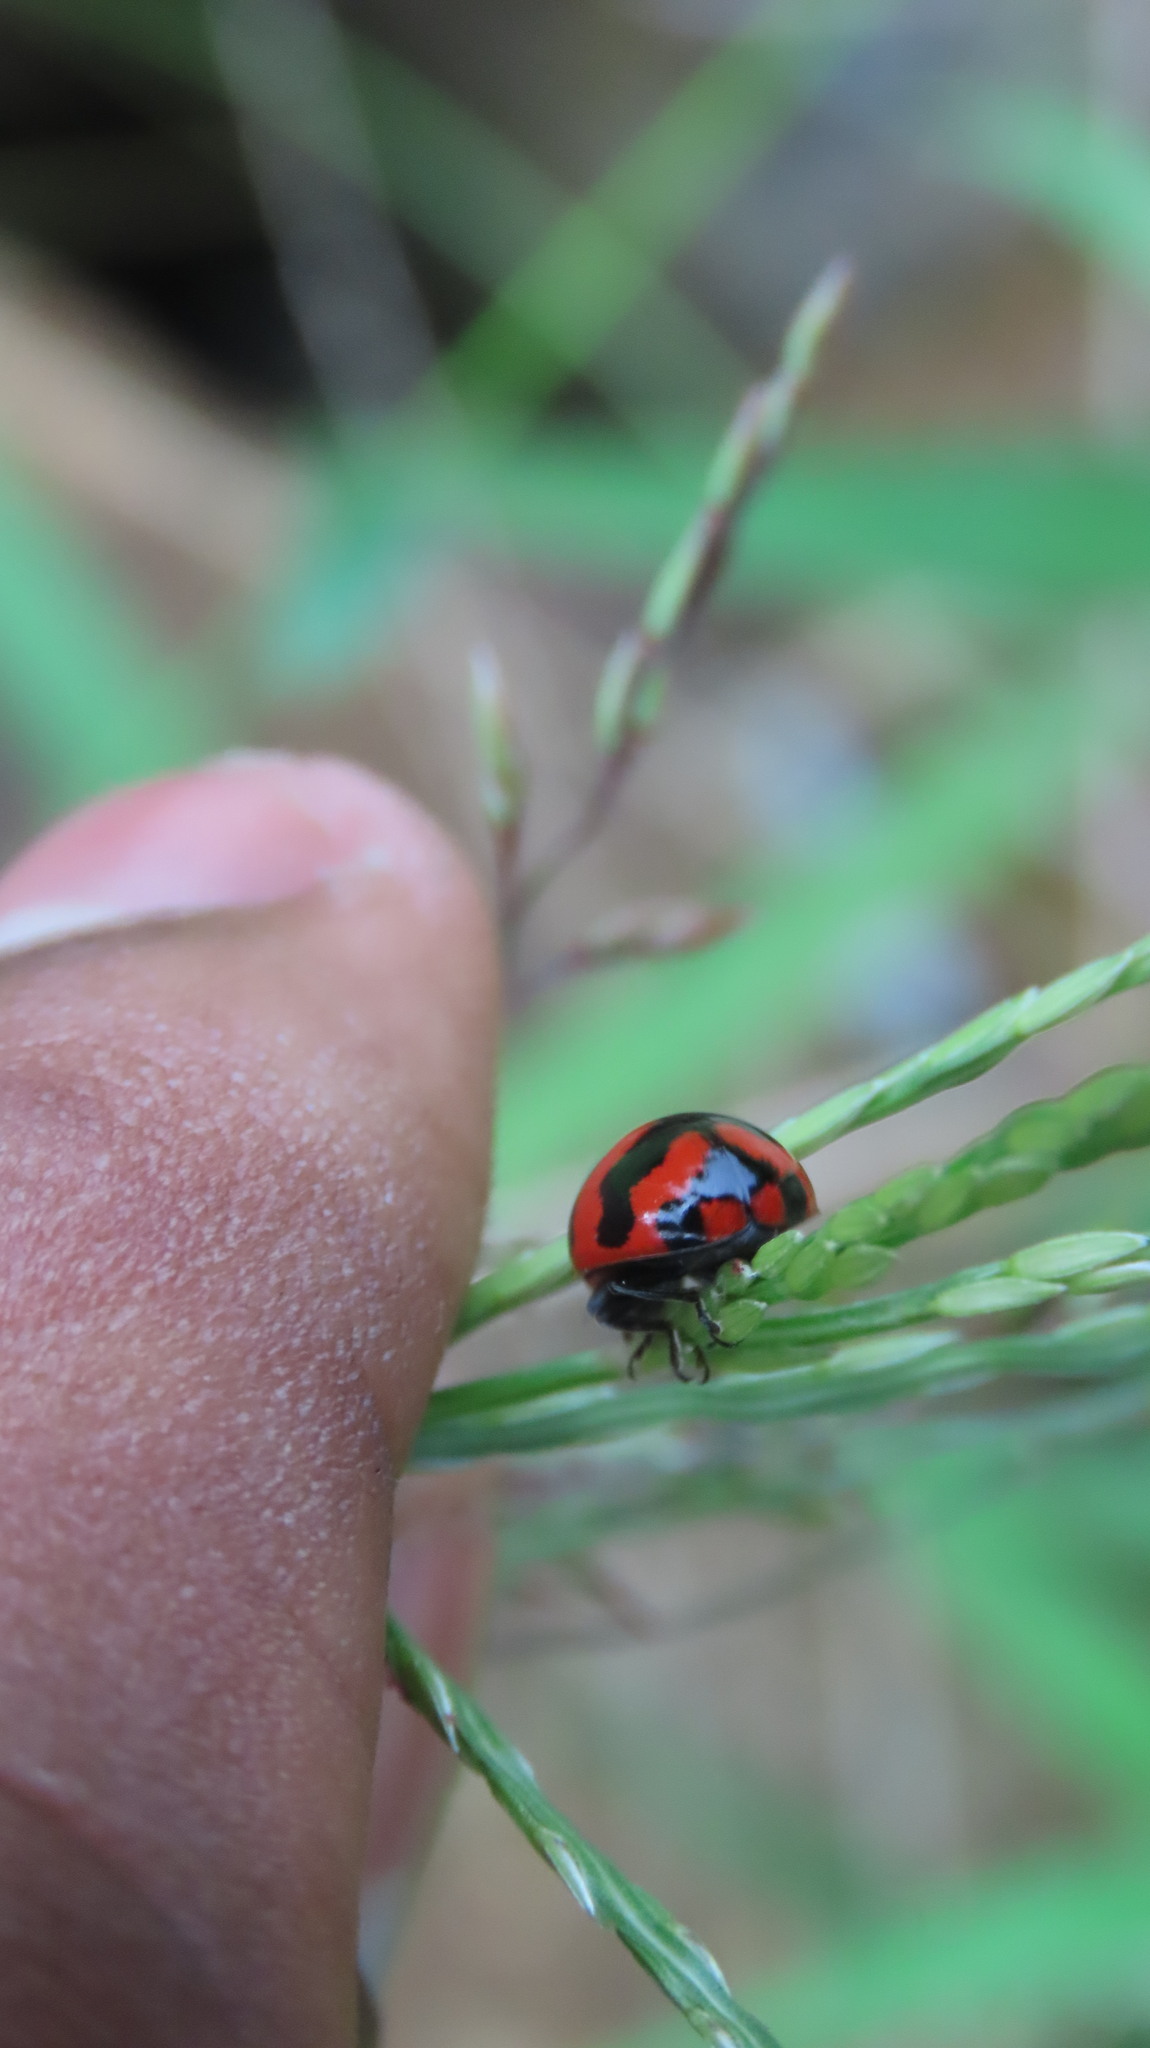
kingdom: Animalia
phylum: Arthropoda
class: Insecta
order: Coleoptera
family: Coccinellidae
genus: Coccinella
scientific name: Coccinella transversalis
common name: Transverse lady beetle
